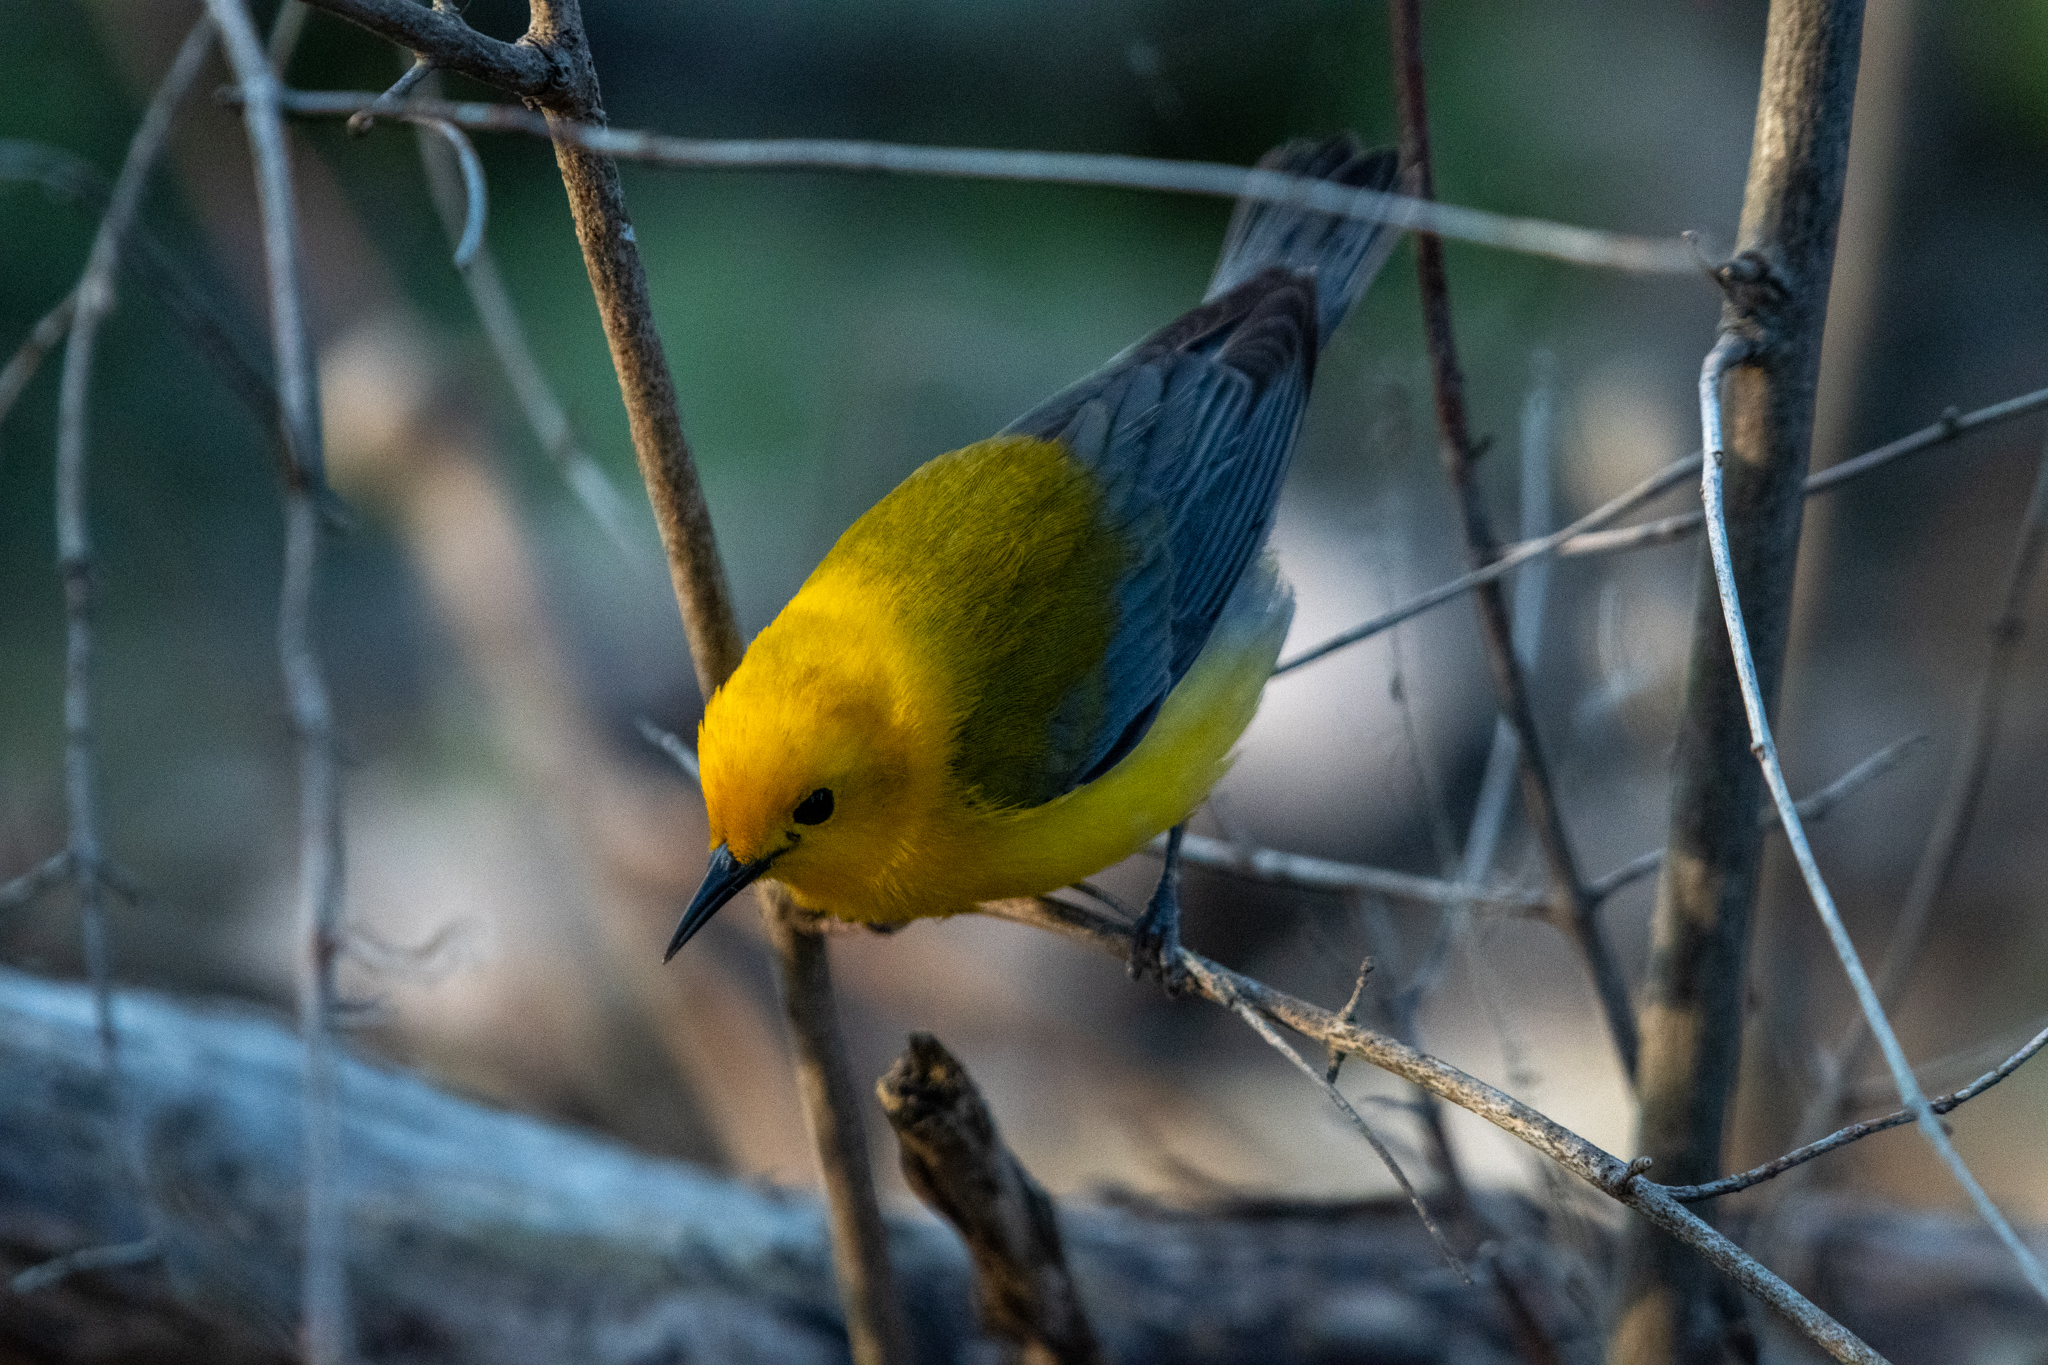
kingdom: Animalia
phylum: Chordata
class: Aves
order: Passeriformes
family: Parulidae
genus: Protonotaria
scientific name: Protonotaria citrea
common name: Prothonotary warbler
